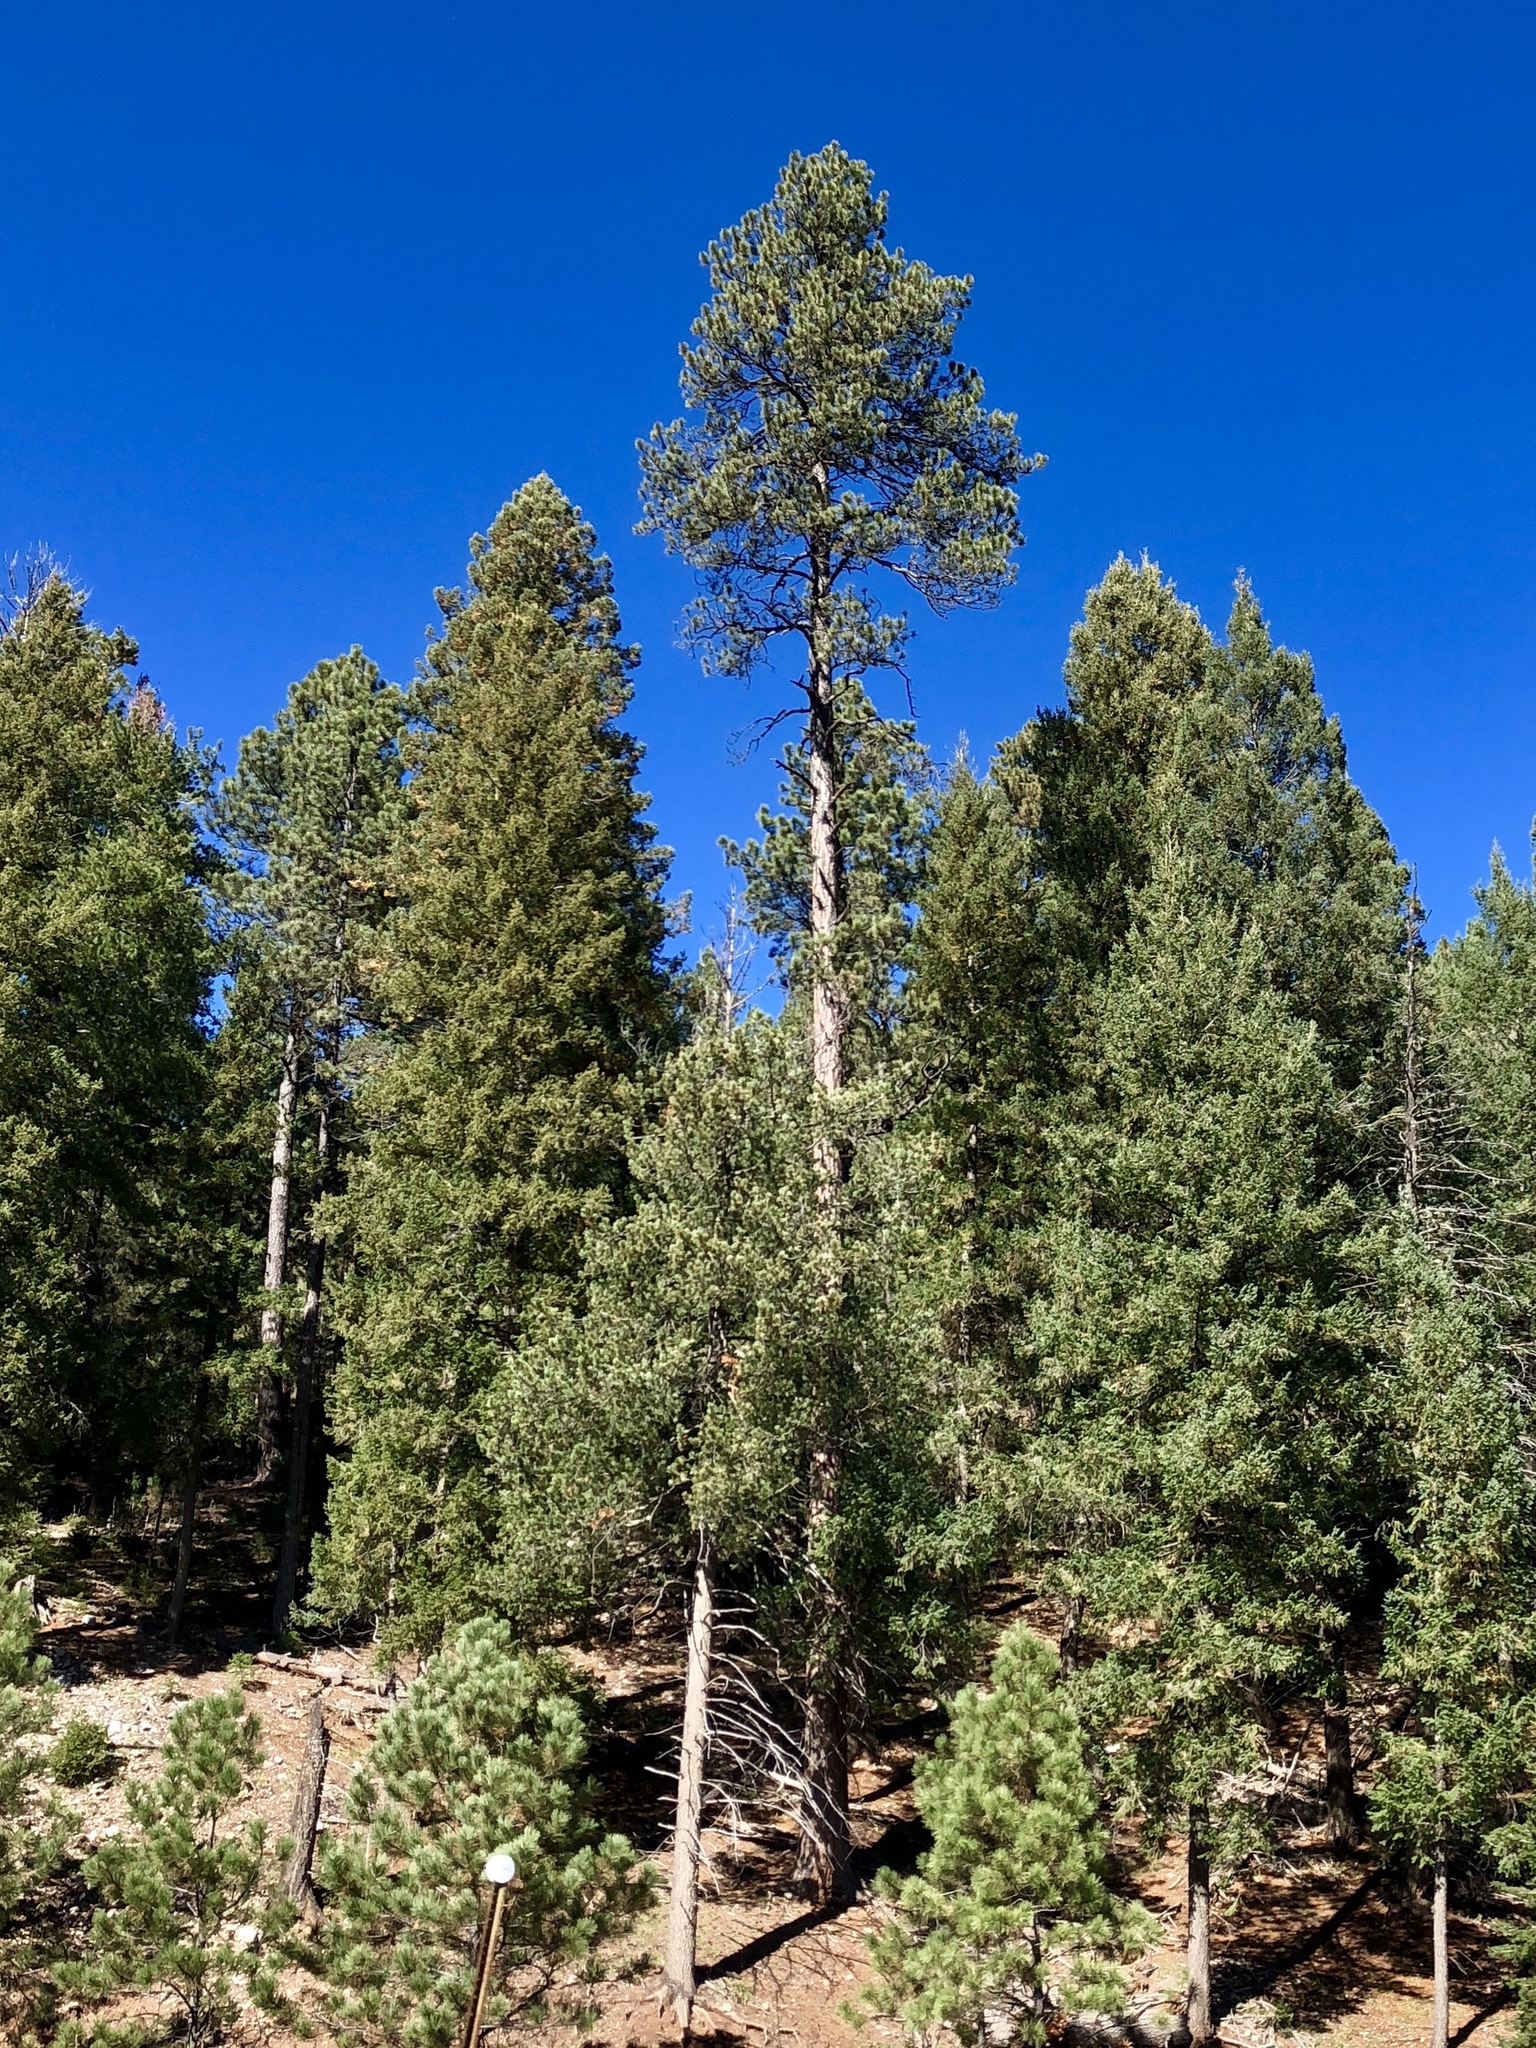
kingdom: Plantae
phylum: Tracheophyta
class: Pinopsida
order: Pinales
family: Pinaceae
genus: Pinus
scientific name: Pinus ponderosa
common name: Western yellow-pine
